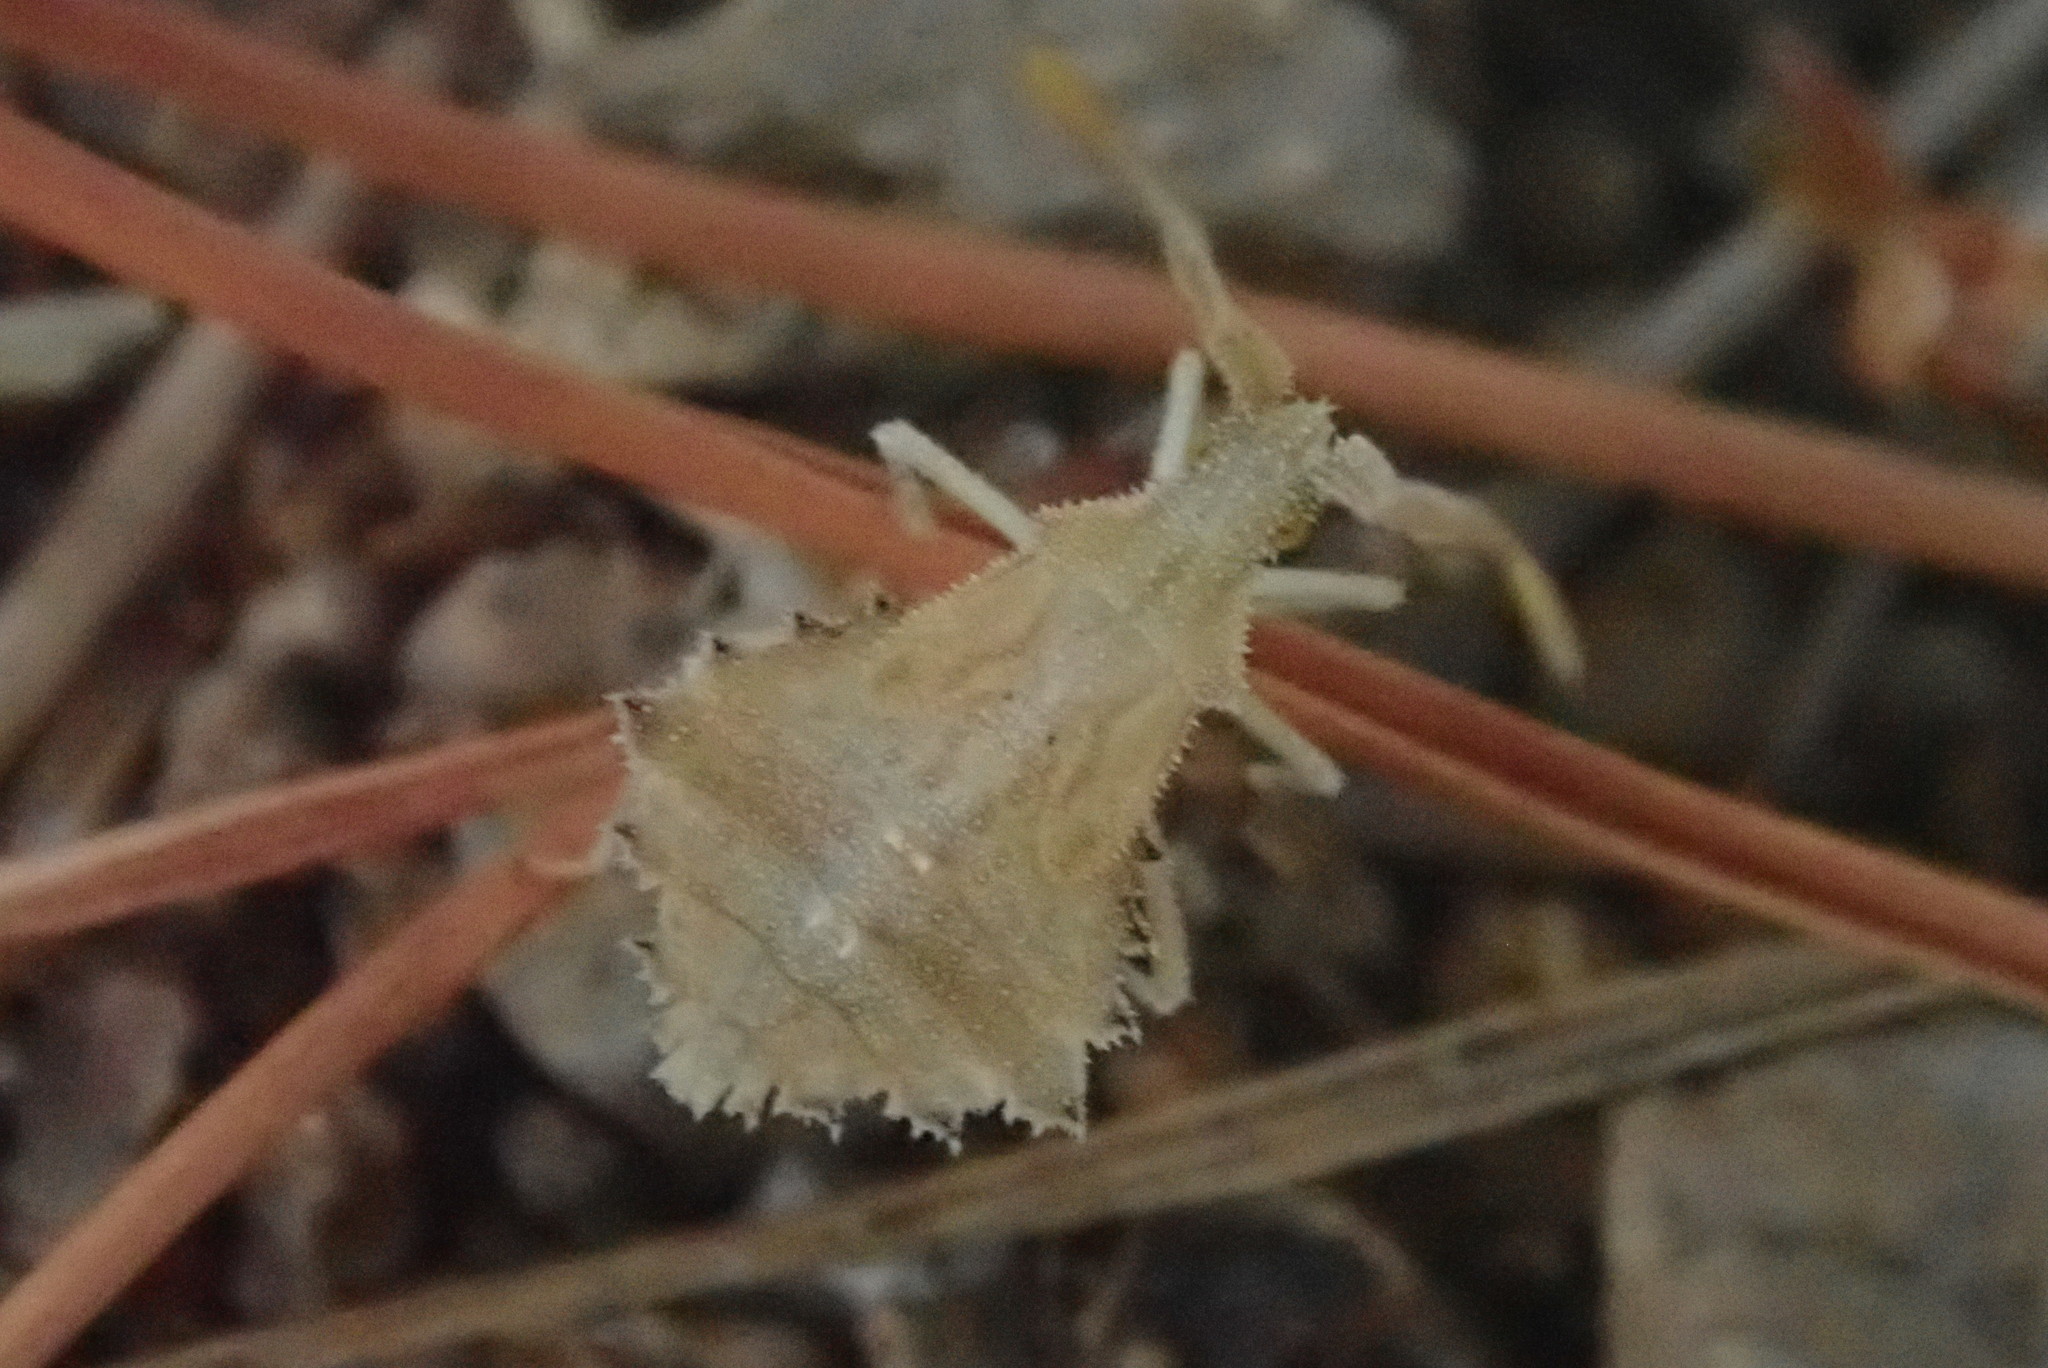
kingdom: Animalia
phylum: Arthropoda
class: Insecta
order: Hemiptera
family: Coreidae
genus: Syromastus
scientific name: Syromastus rhombeus
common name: Rhombic leatherbug
